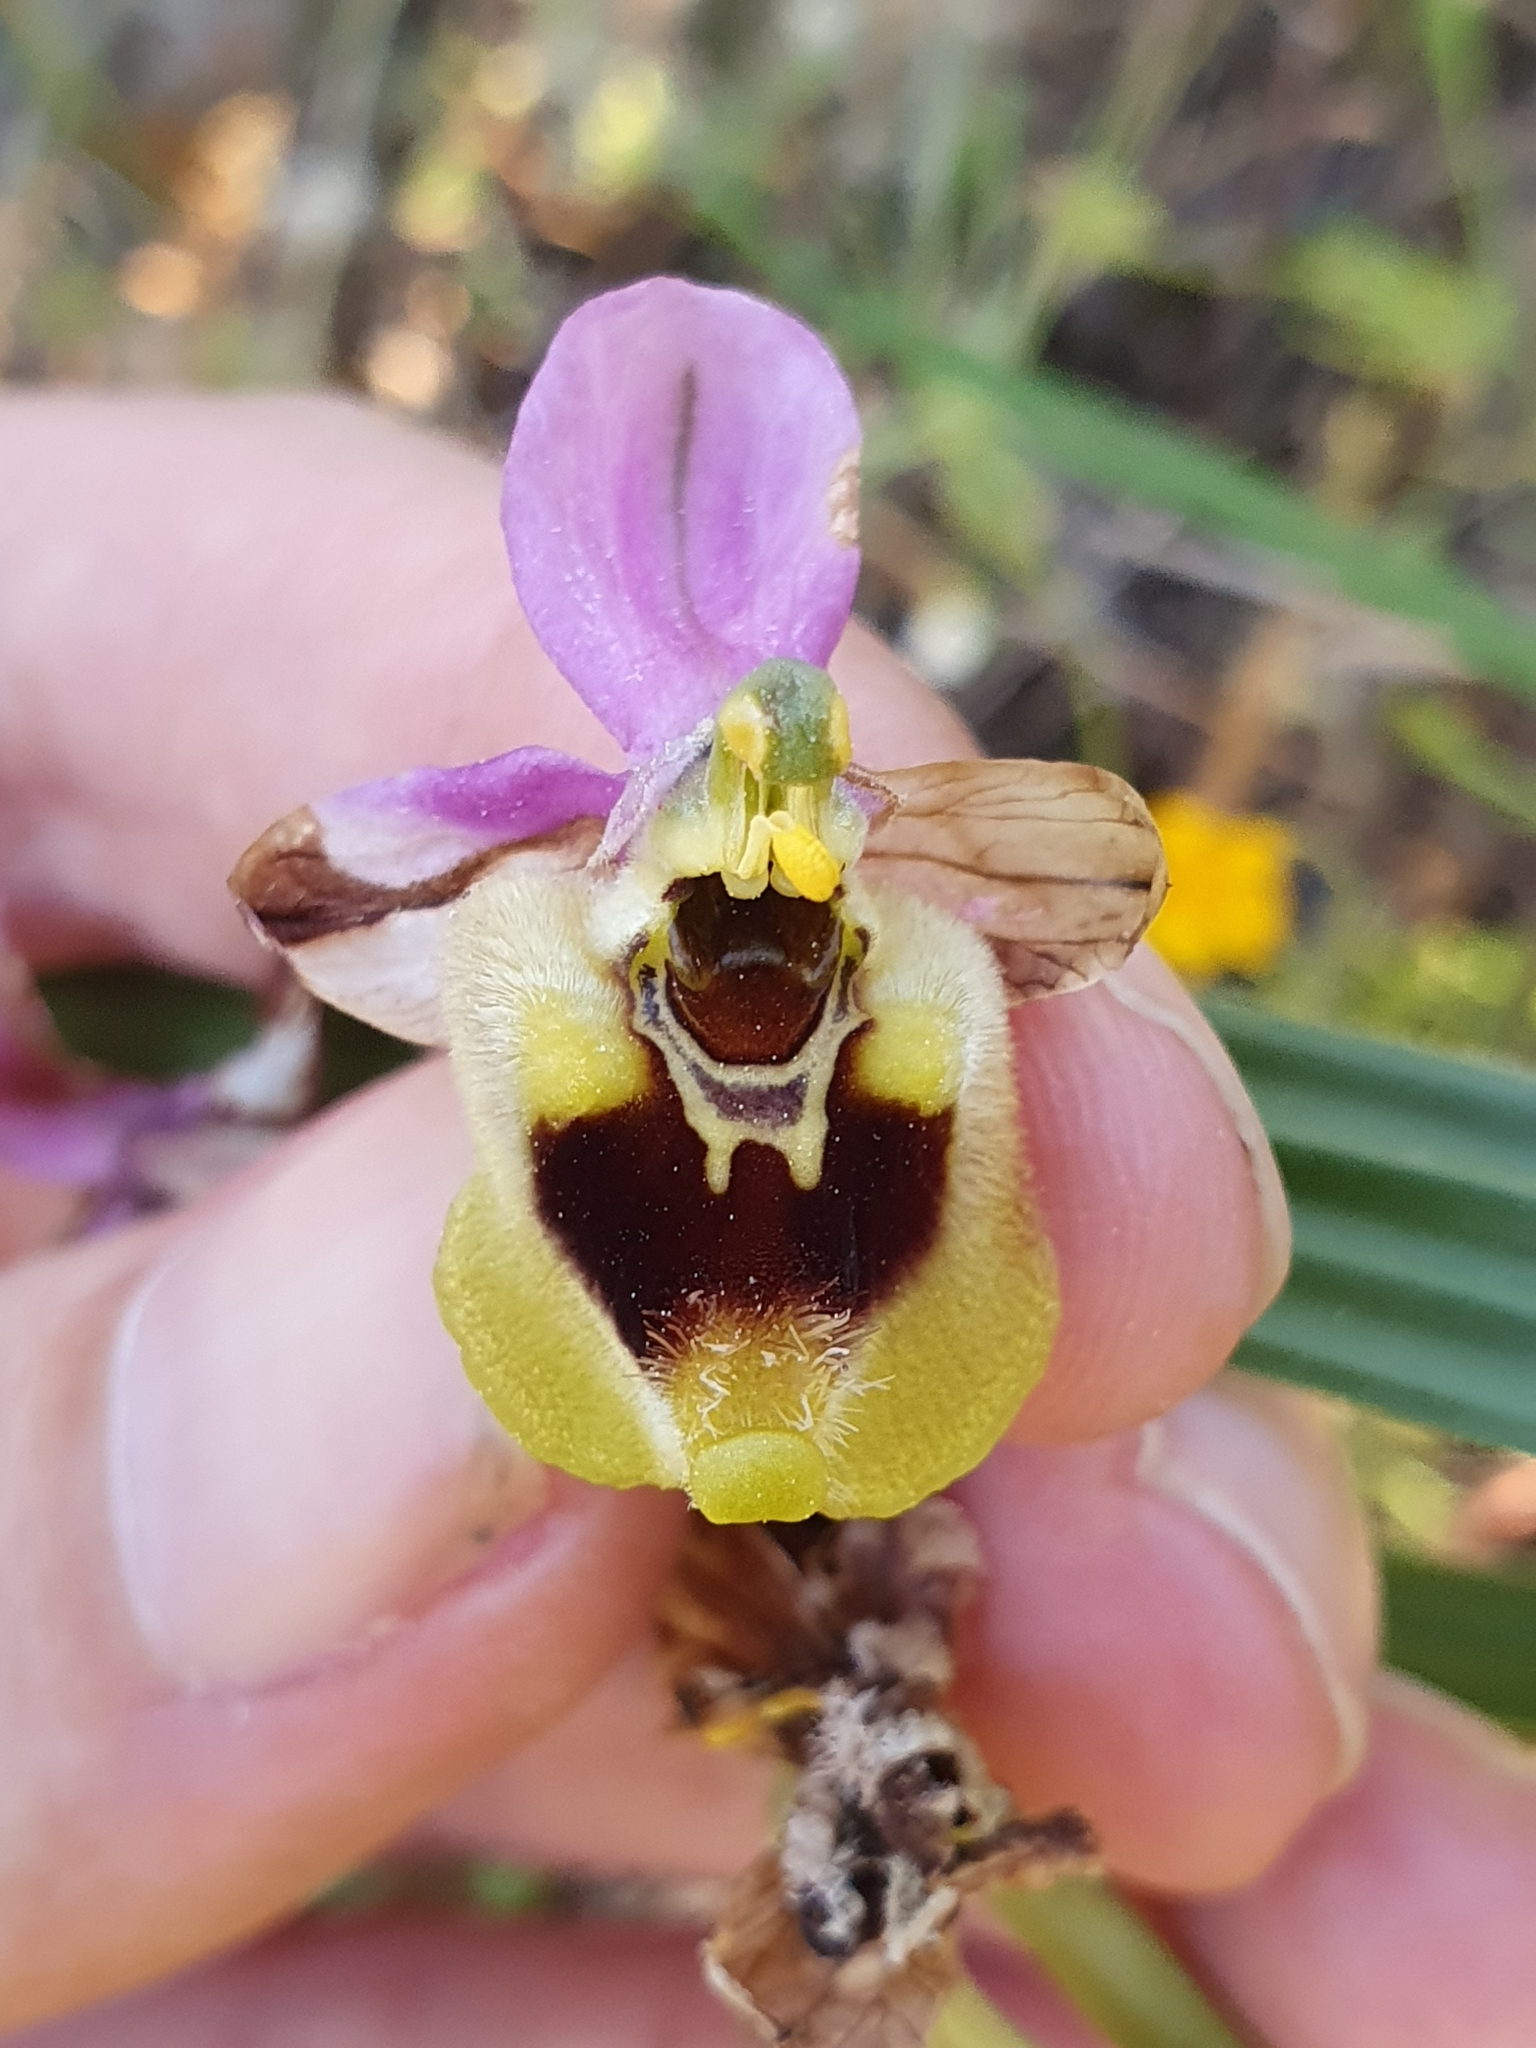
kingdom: Plantae
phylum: Tracheophyta
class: Liliopsida
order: Asparagales
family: Orchidaceae
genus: Ophrys
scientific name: Ophrys tenthredinifera
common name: Sawfly orchid
